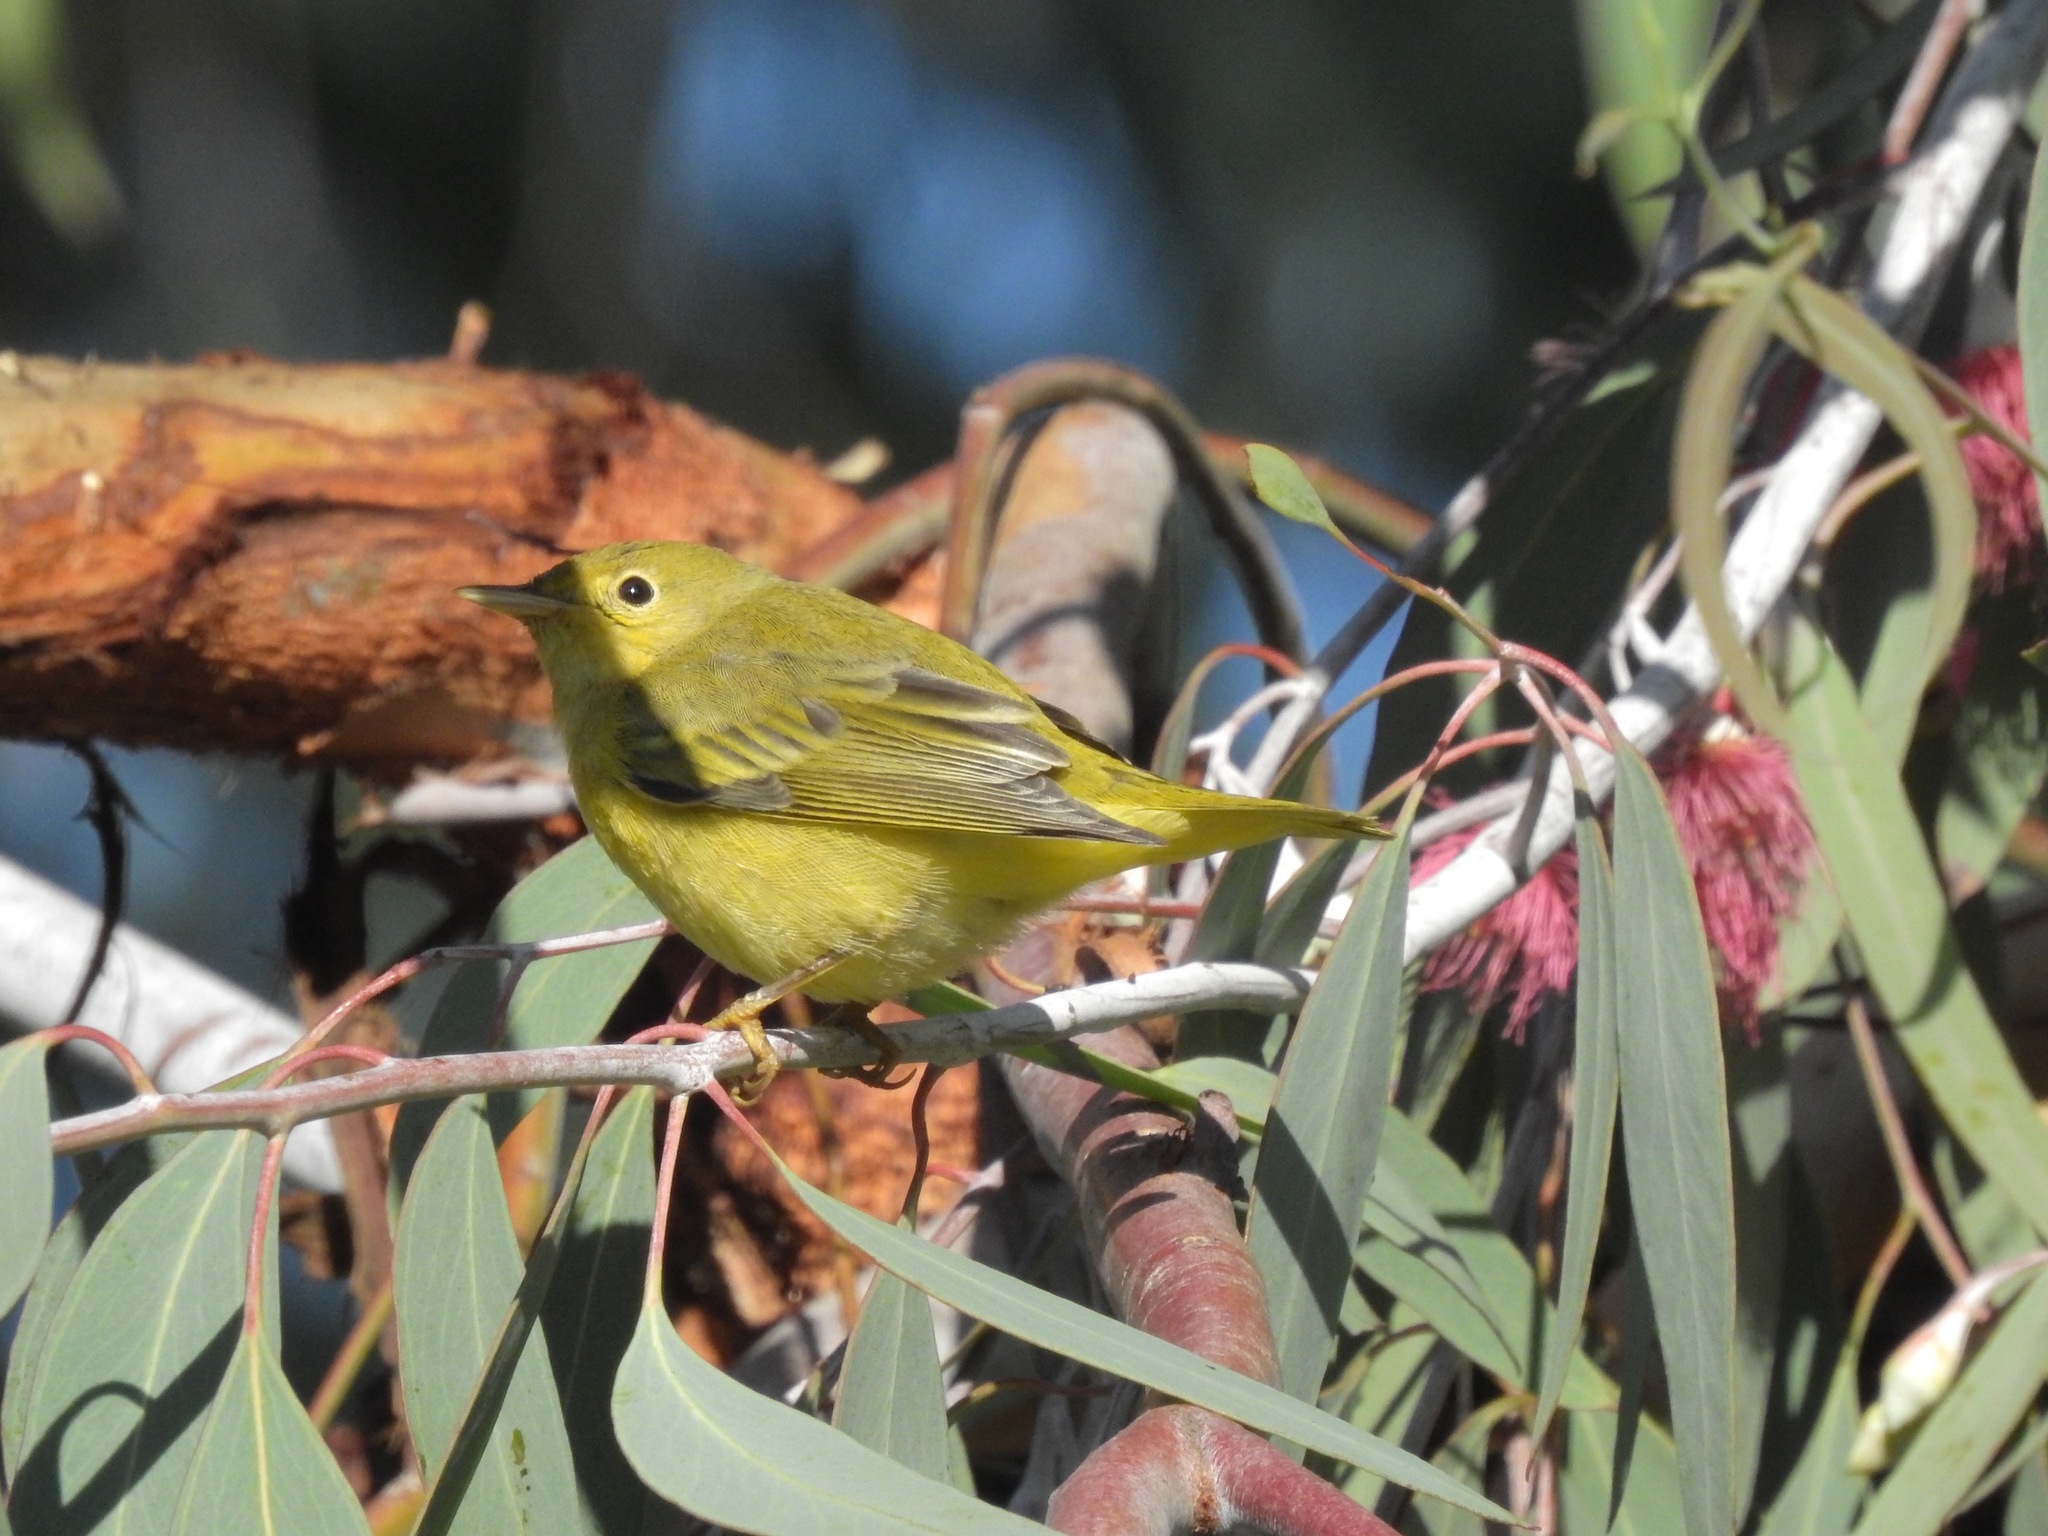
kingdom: Animalia
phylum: Chordata
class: Aves
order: Passeriformes
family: Parulidae
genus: Setophaga
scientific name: Setophaga petechia
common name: Yellow warbler
